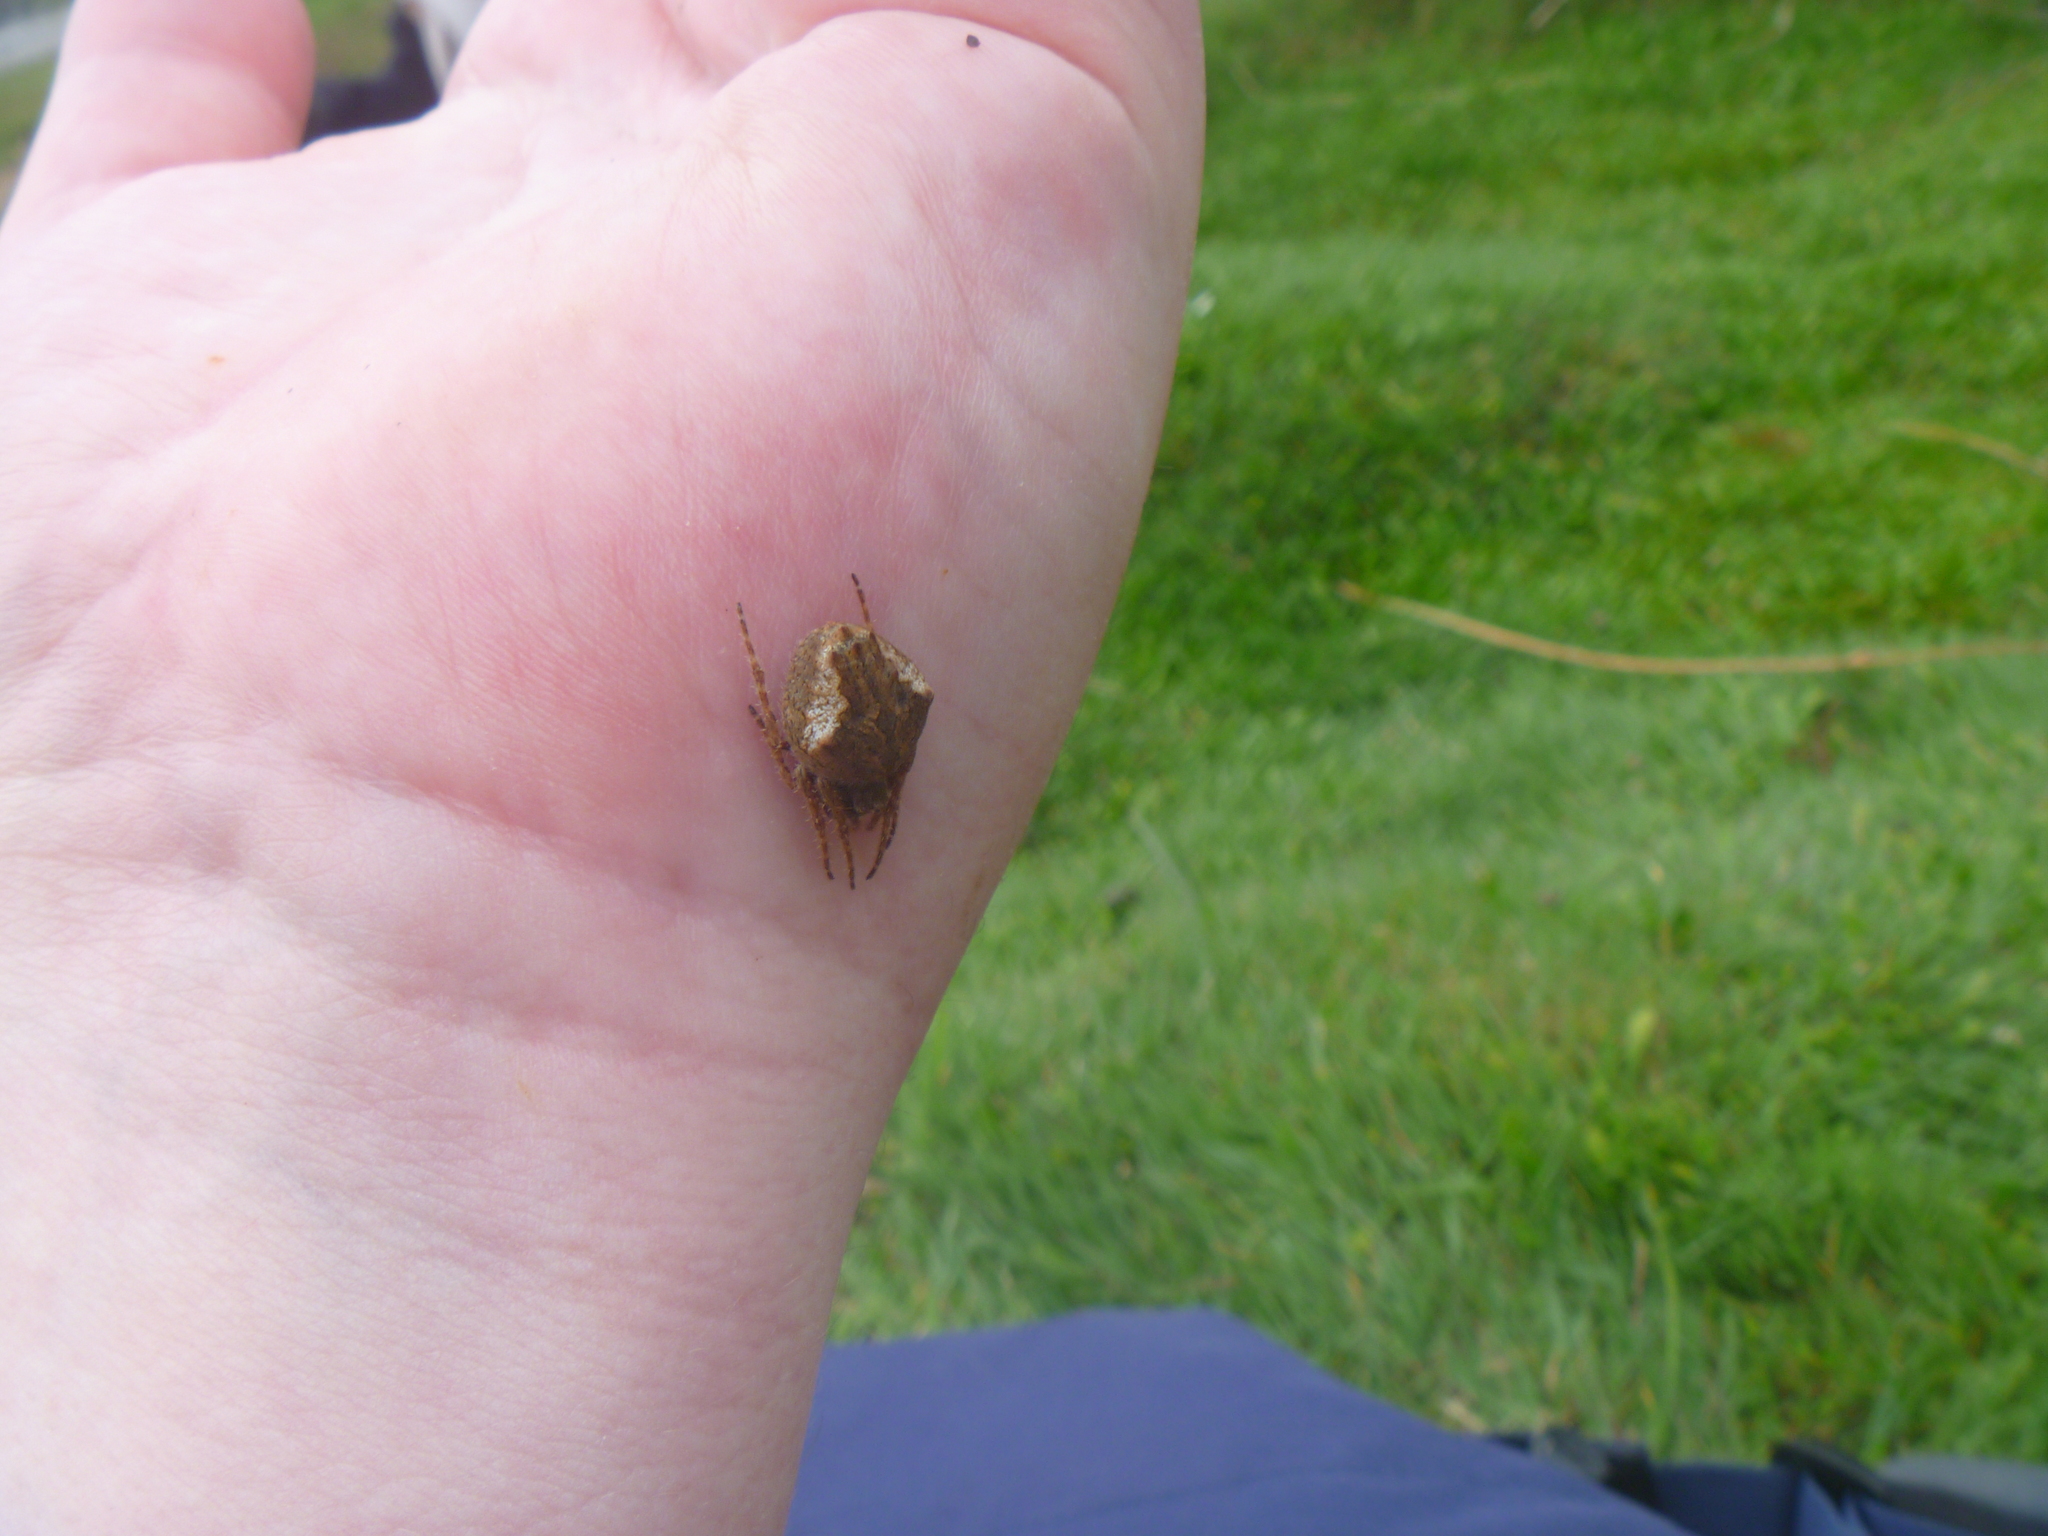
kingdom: Animalia
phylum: Arthropoda
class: Arachnida
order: Araneae
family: Araneidae
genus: Eriophora
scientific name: Eriophora pustulosa
